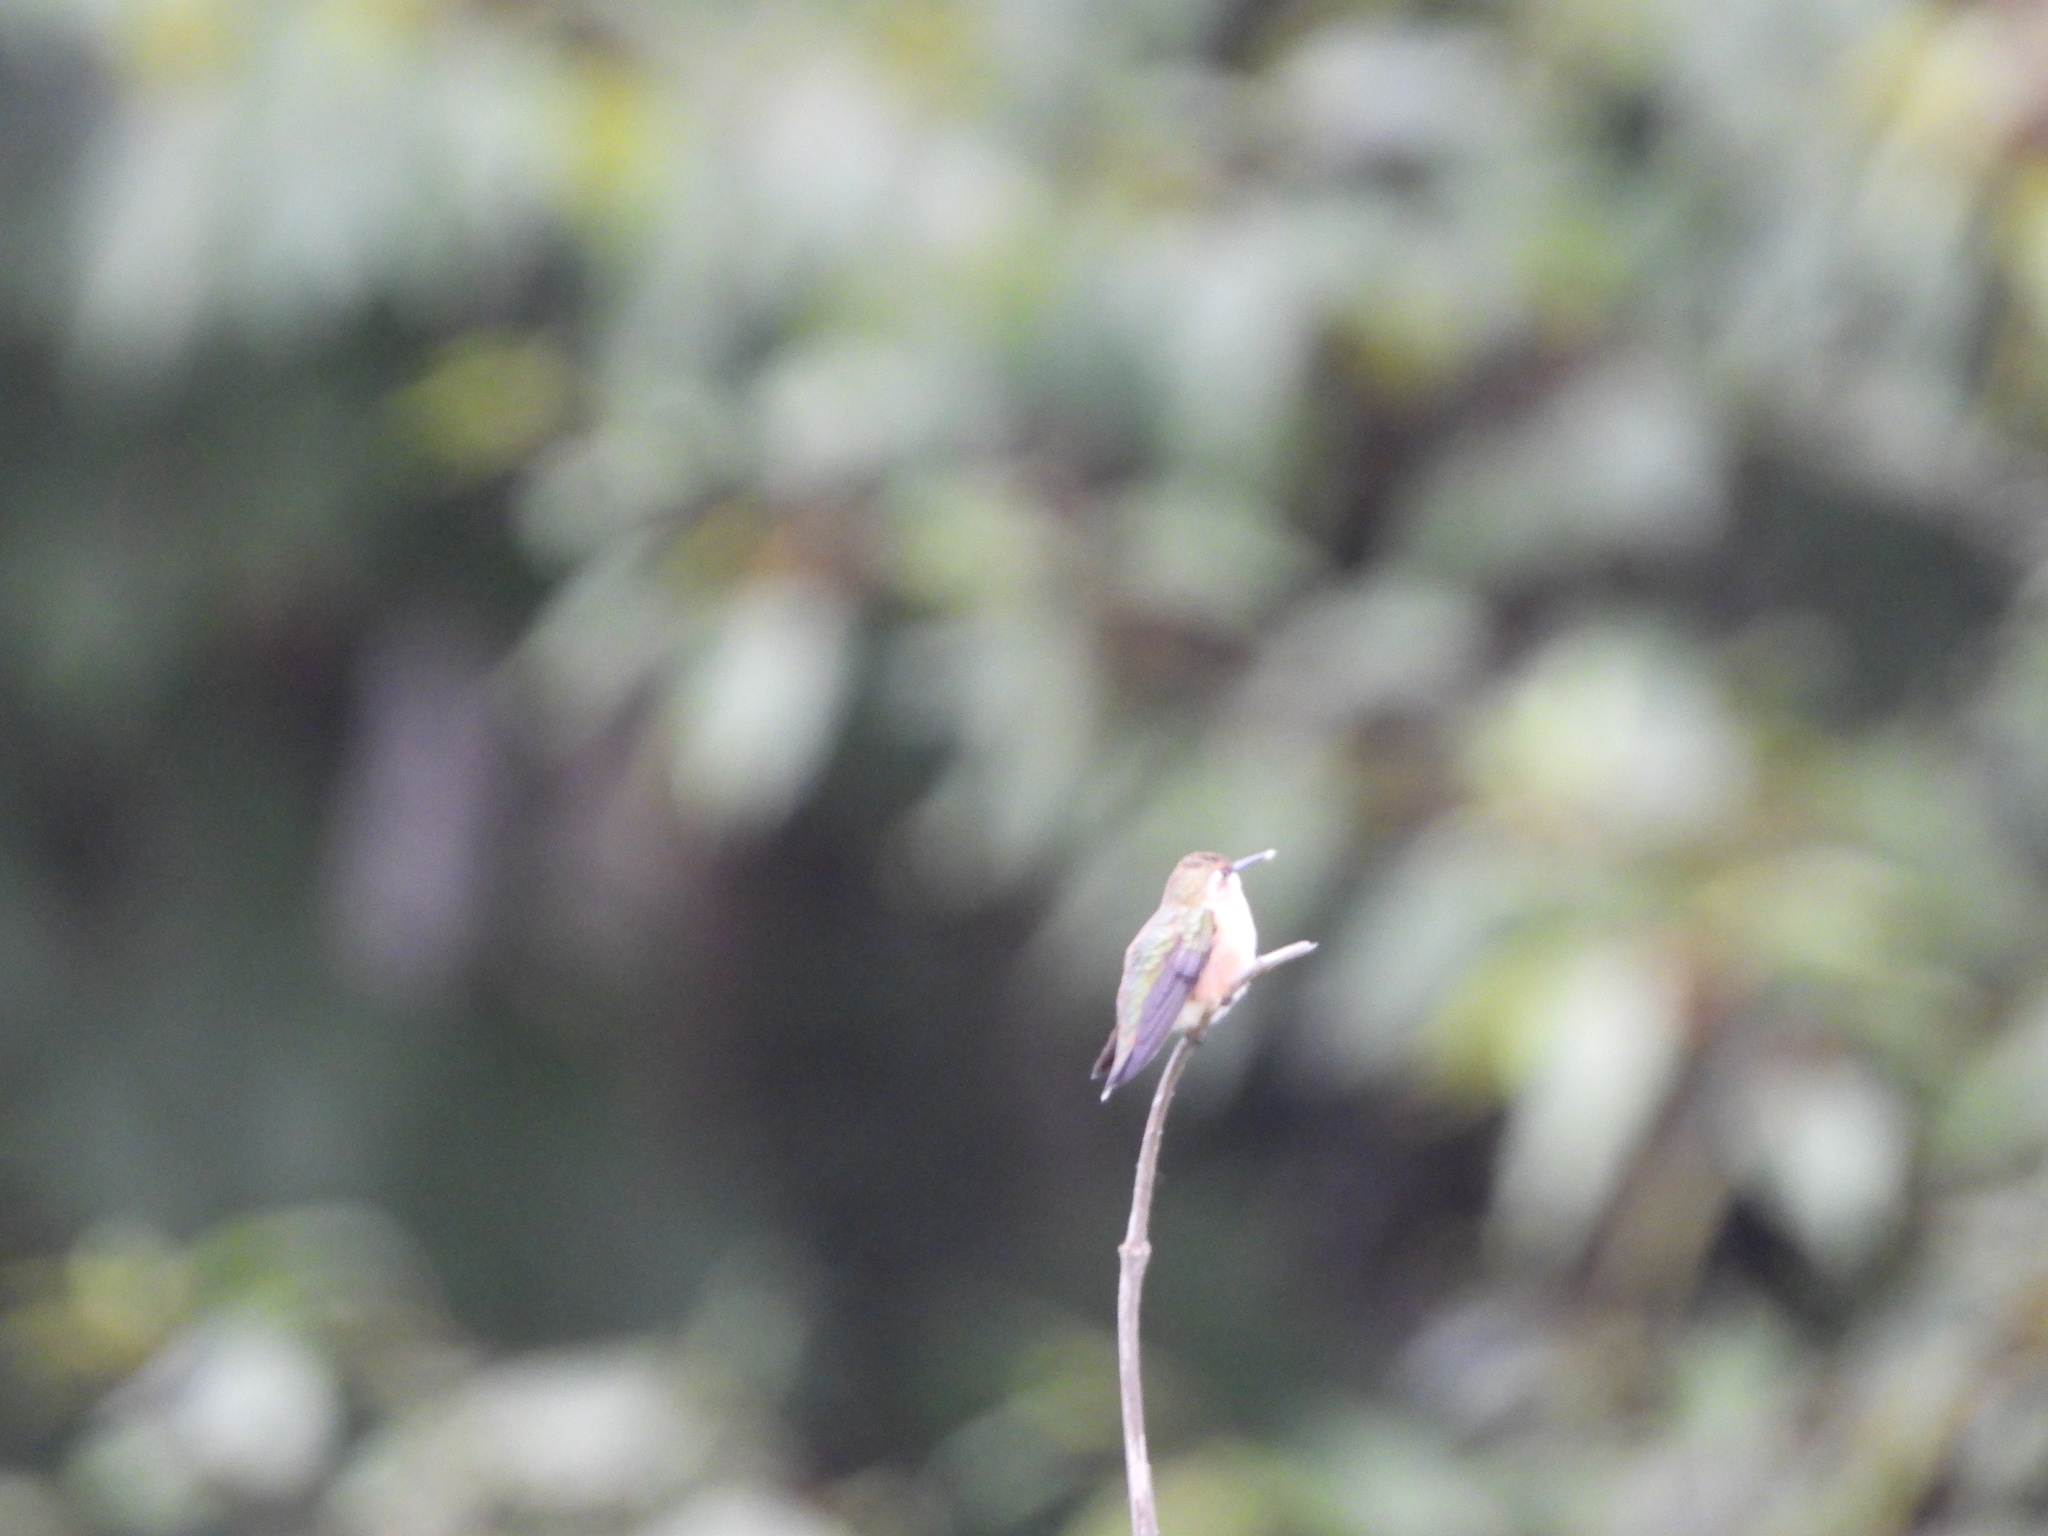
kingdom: Animalia
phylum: Chordata
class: Aves
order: Apodiformes
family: Trochilidae
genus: Selasphorus
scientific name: Selasphorus rufus
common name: Rufous hummingbird
